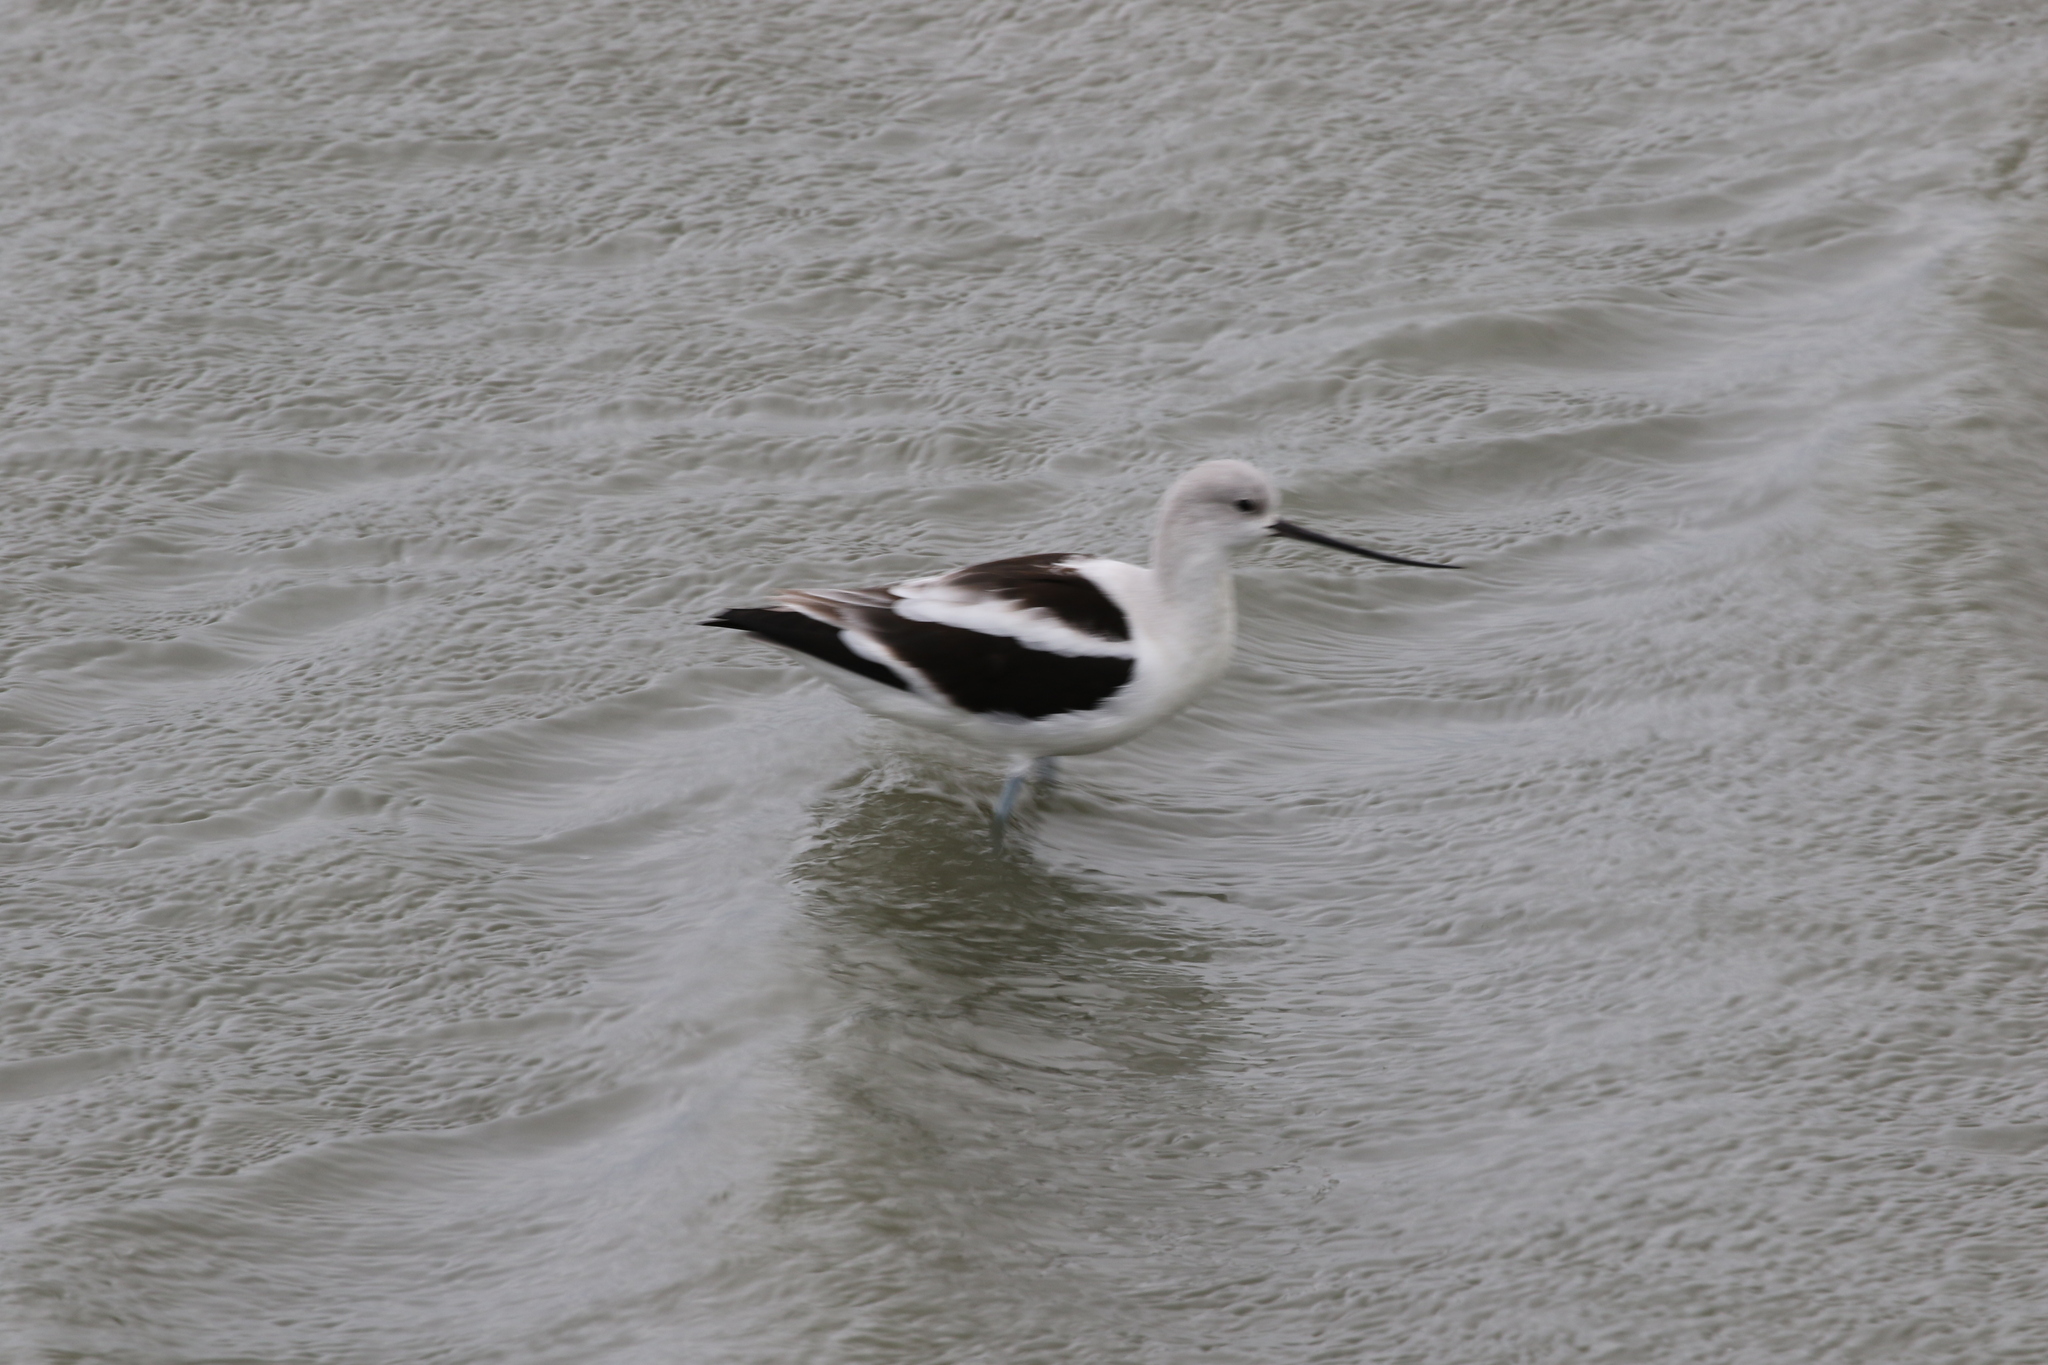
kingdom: Animalia
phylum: Chordata
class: Aves
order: Charadriiformes
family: Recurvirostridae
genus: Recurvirostra
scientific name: Recurvirostra americana
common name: American avocet
